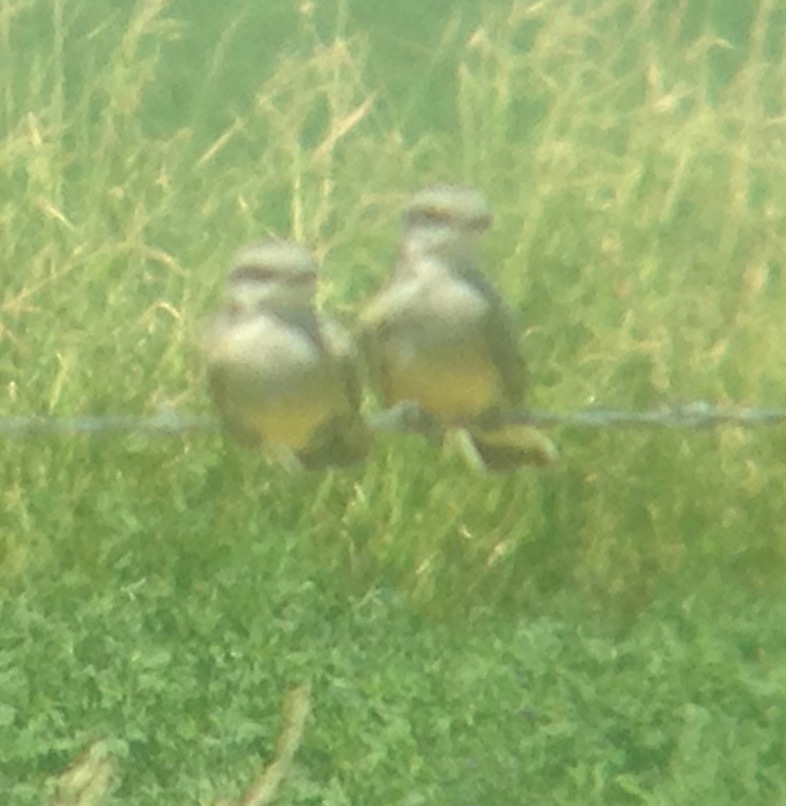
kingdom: Animalia
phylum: Chordata
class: Aves
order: Passeriformes
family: Tyrannidae
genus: Tyrannus
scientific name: Tyrannus verticalis
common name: Western kingbird
